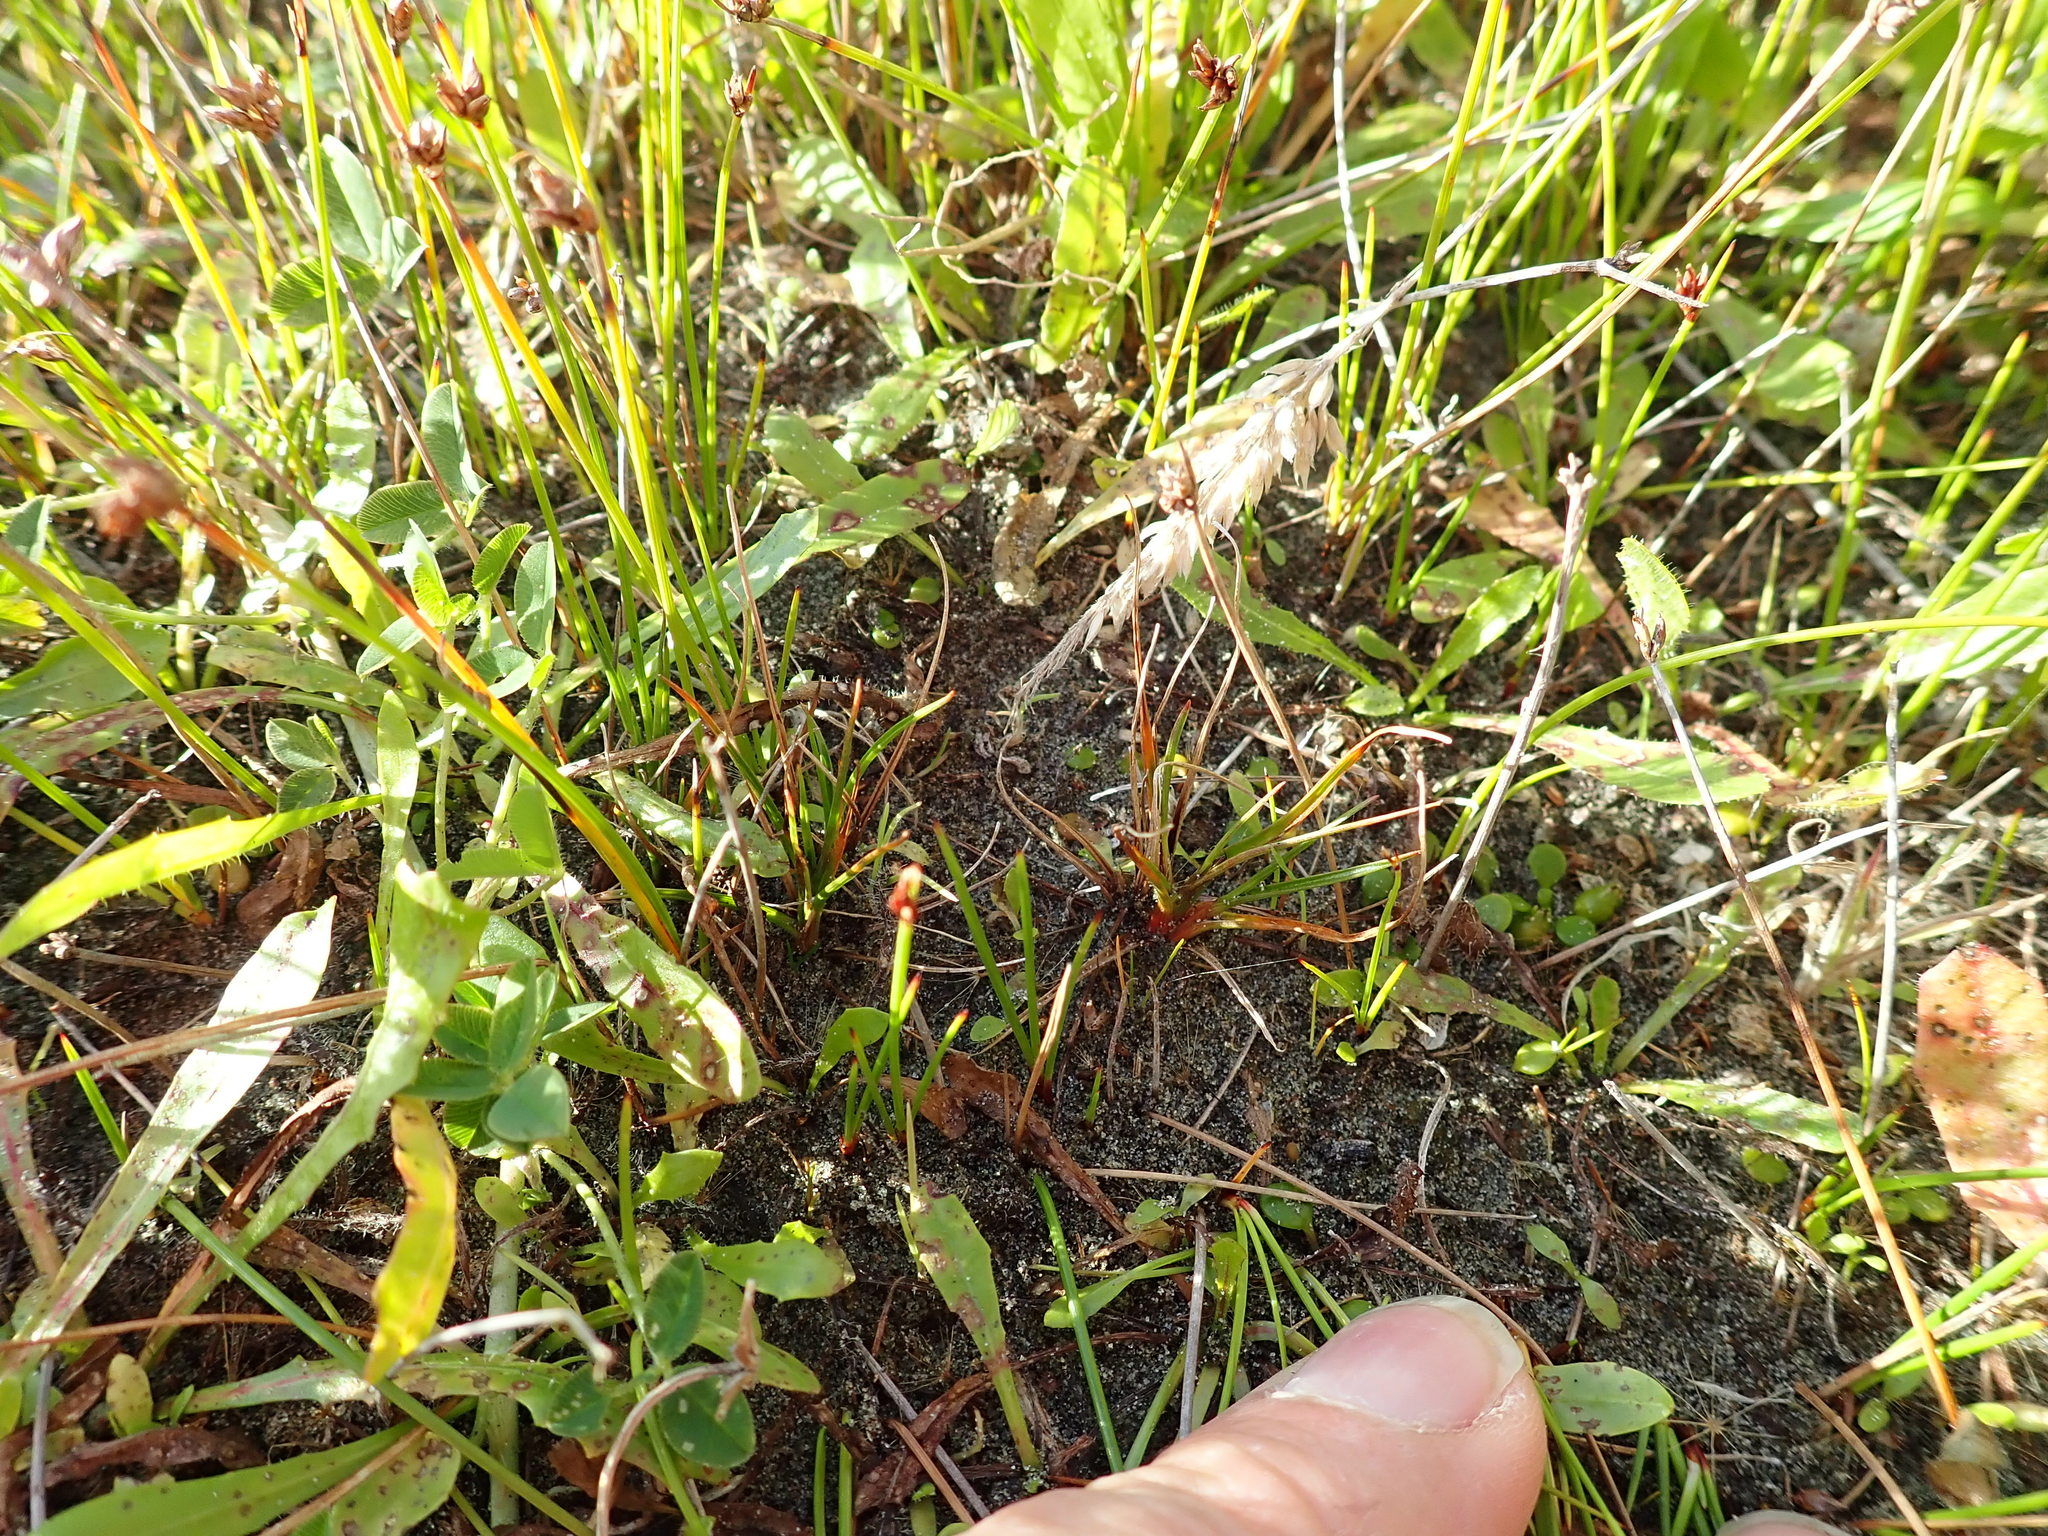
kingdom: Plantae
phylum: Tracheophyta
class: Liliopsida
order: Poales
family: Juncaceae
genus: Juncus
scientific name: Juncus caespiticius
